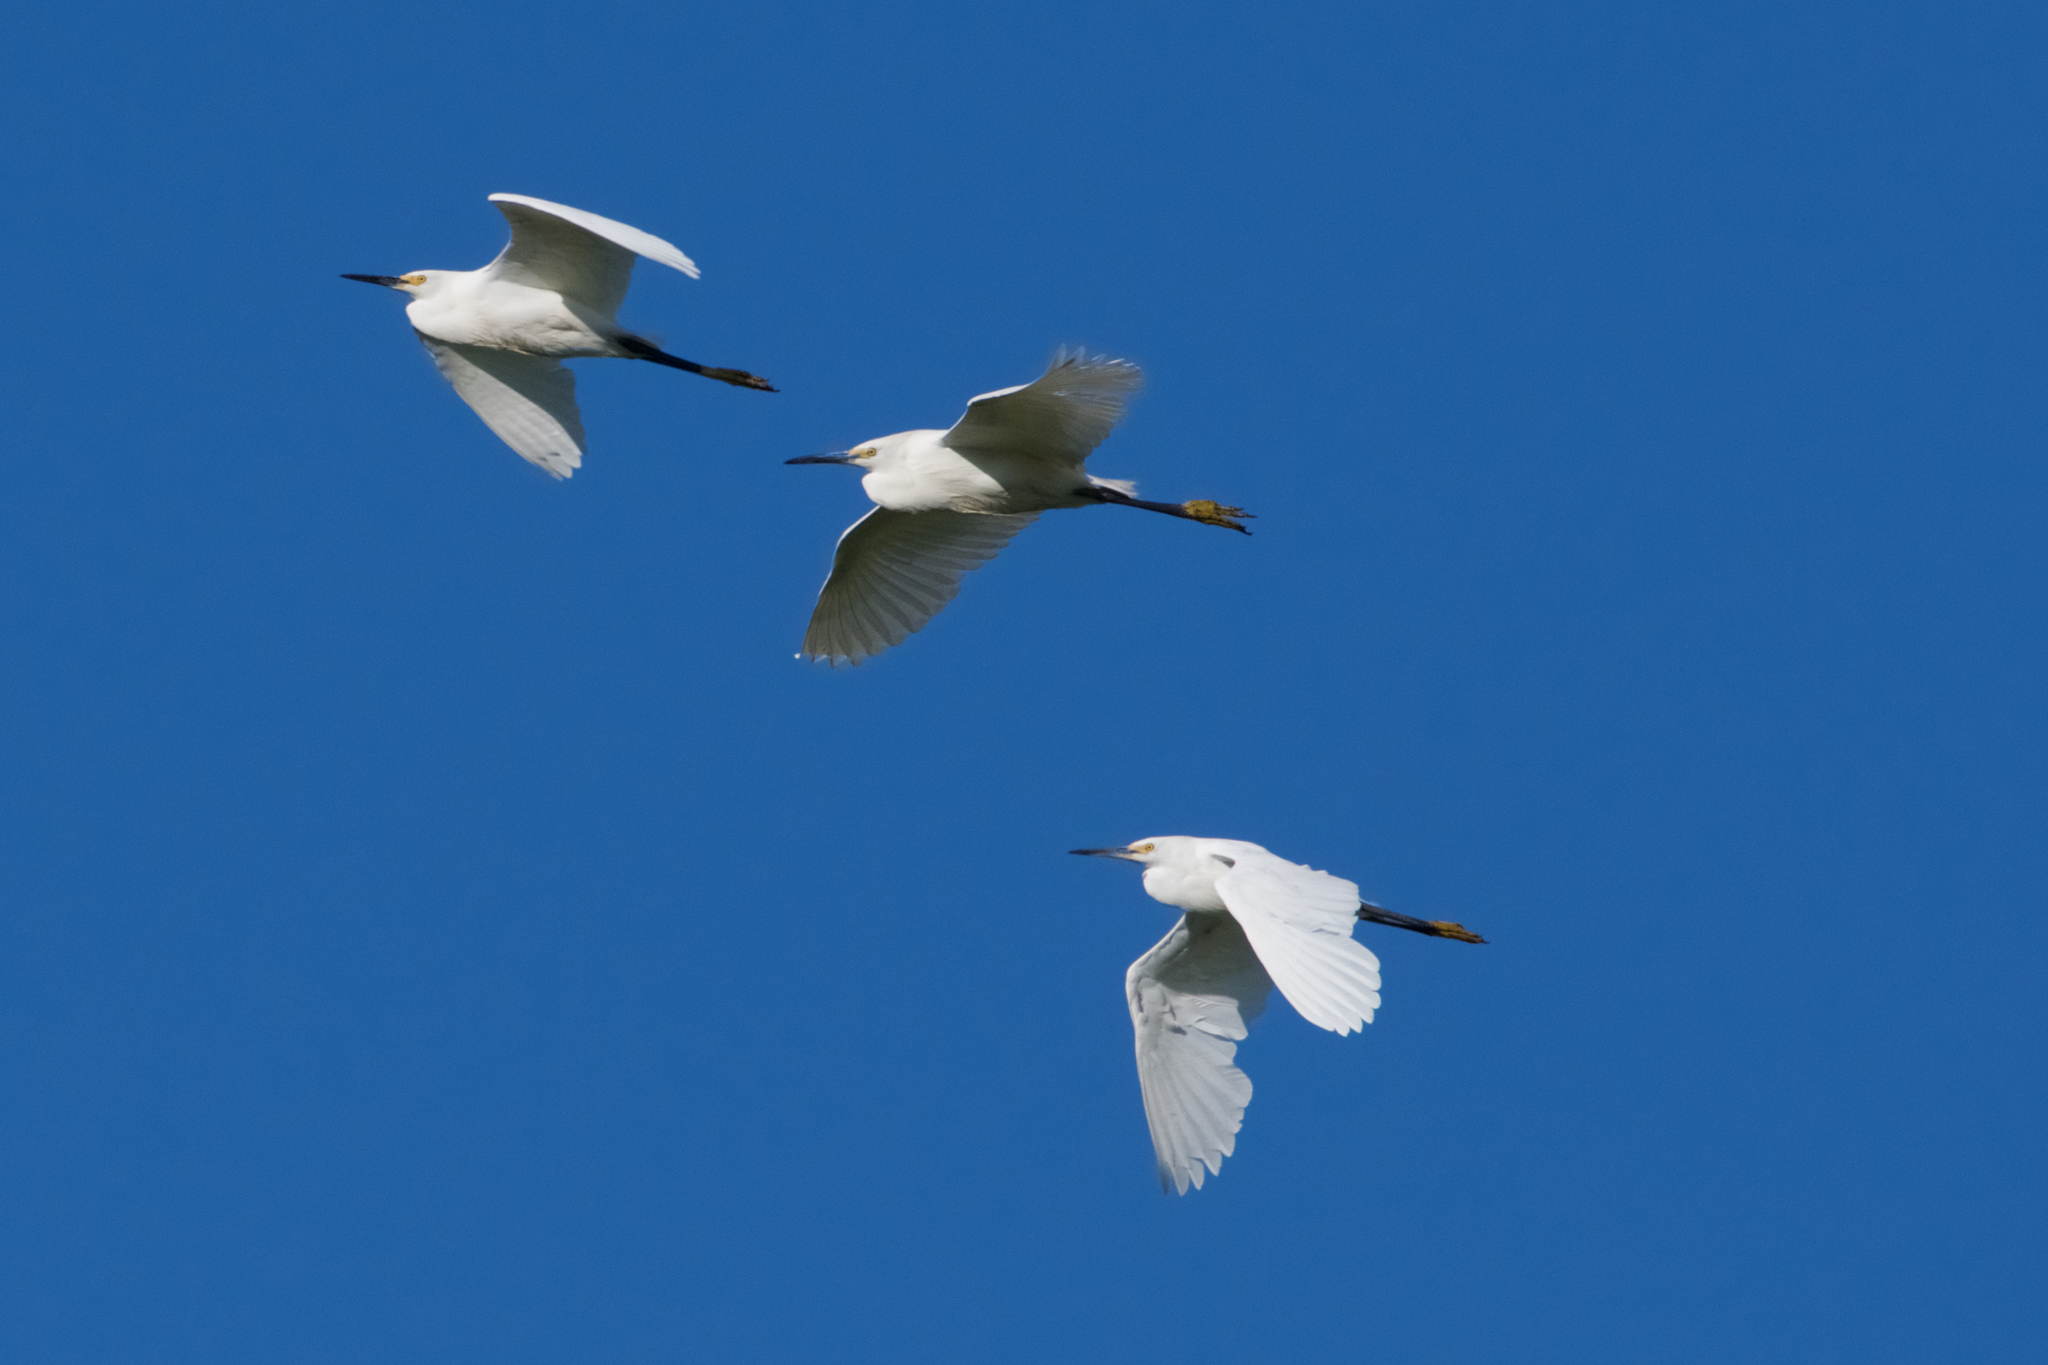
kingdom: Animalia
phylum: Chordata
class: Aves
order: Pelecaniformes
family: Ardeidae
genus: Egretta
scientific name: Egretta thula
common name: Snowy egret
